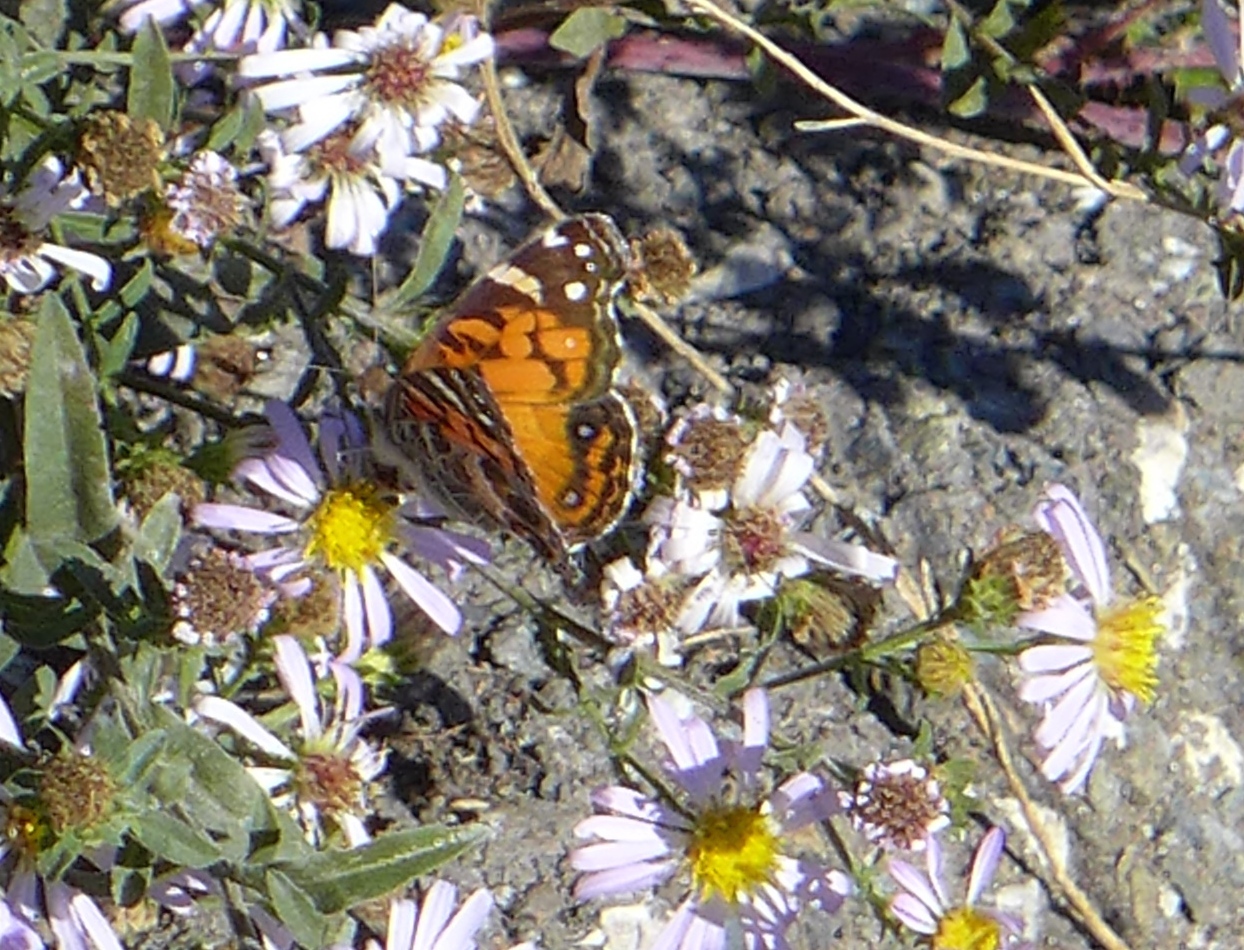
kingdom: Animalia
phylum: Arthropoda
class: Insecta
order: Lepidoptera
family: Nymphalidae
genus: Vanessa
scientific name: Vanessa virginiensis
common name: American lady
